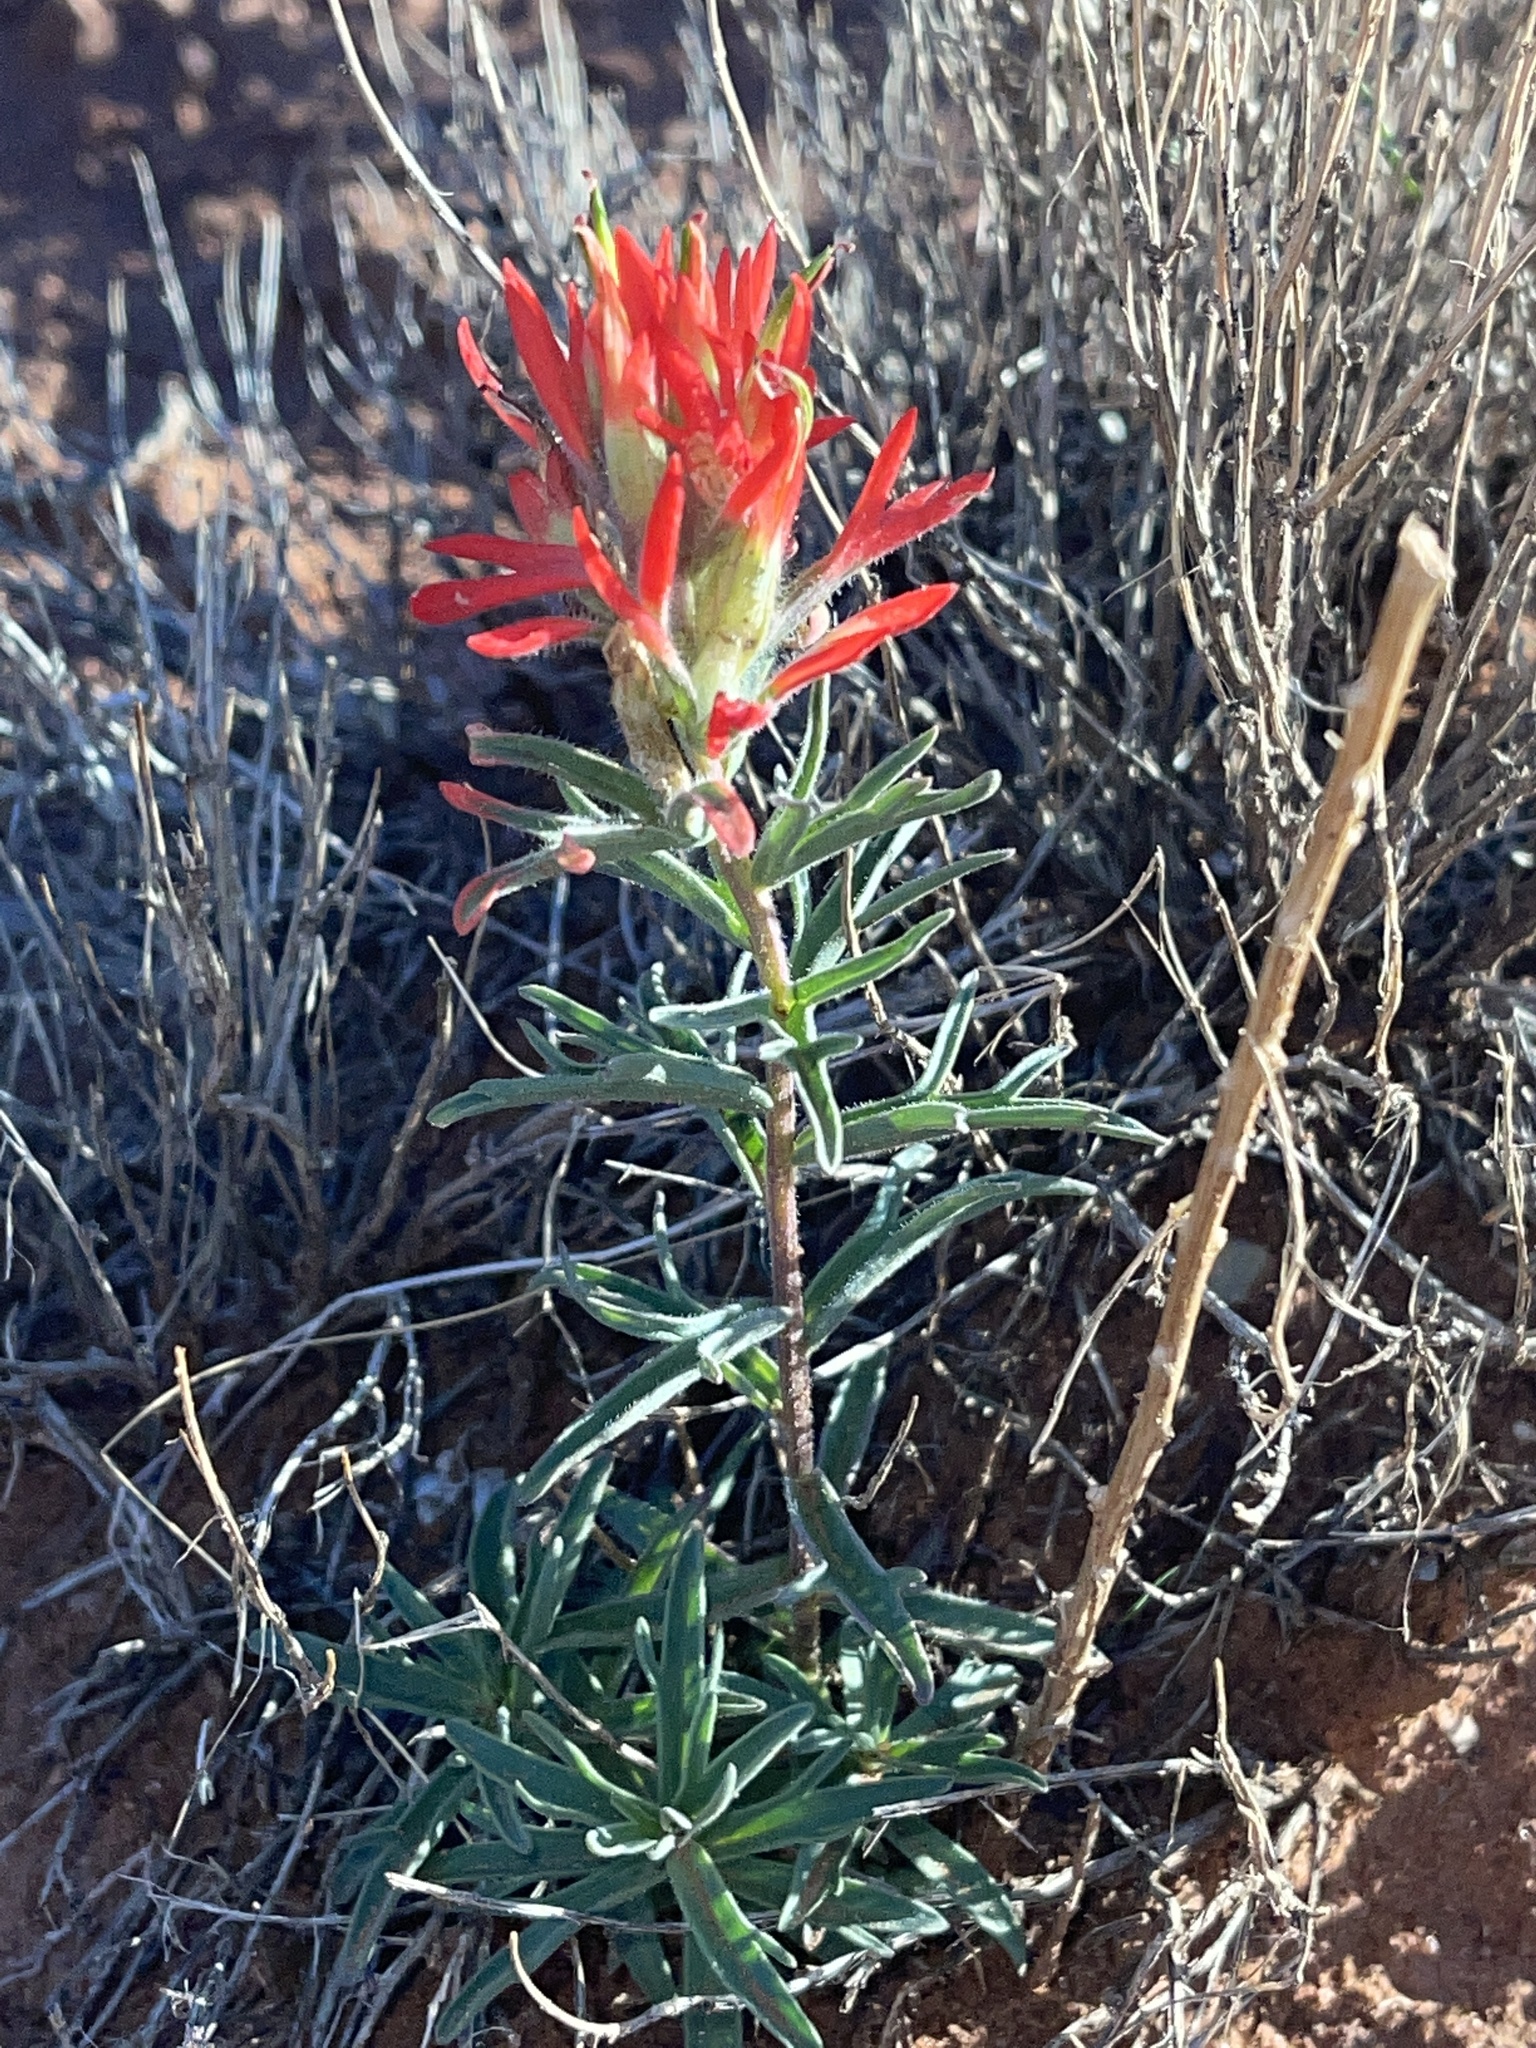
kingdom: Plantae
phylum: Tracheophyta
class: Magnoliopsida
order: Lamiales
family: Orobanchaceae
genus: Castilleja
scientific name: Castilleja chromosa
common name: Desert paintbrush
